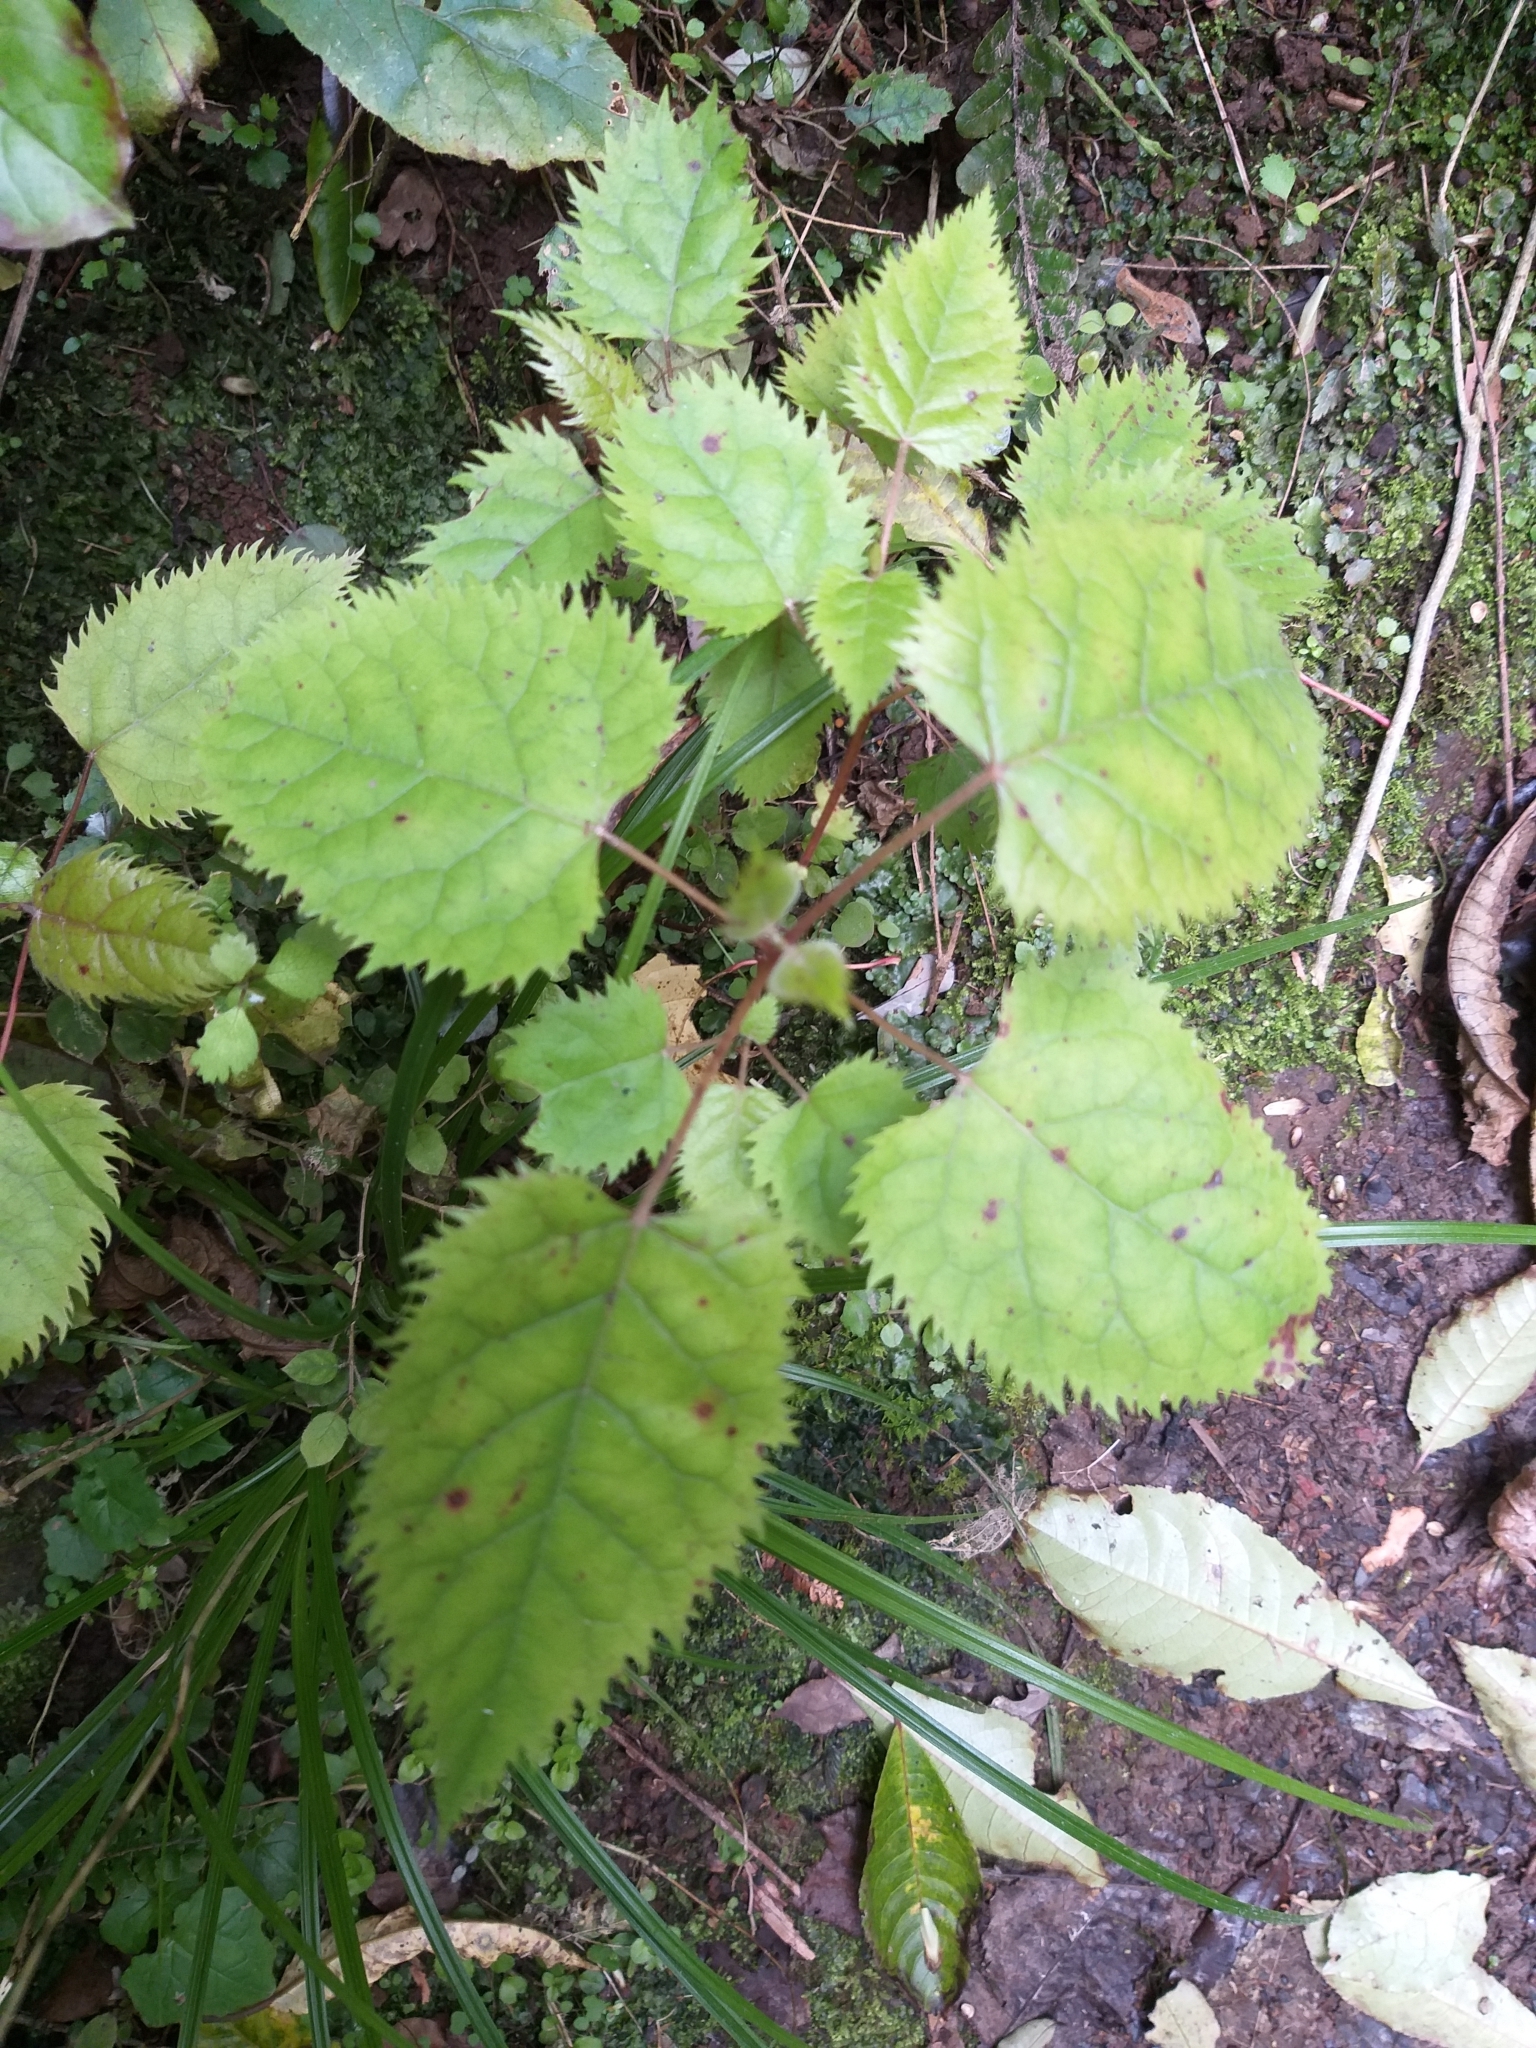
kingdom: Plantae
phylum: Tracheophyta
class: Magnoliopsida
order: Oxalidales
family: Elaeocarpaceae
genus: Aristotelia
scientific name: Aristotelia serrata
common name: New zealand wineberry
